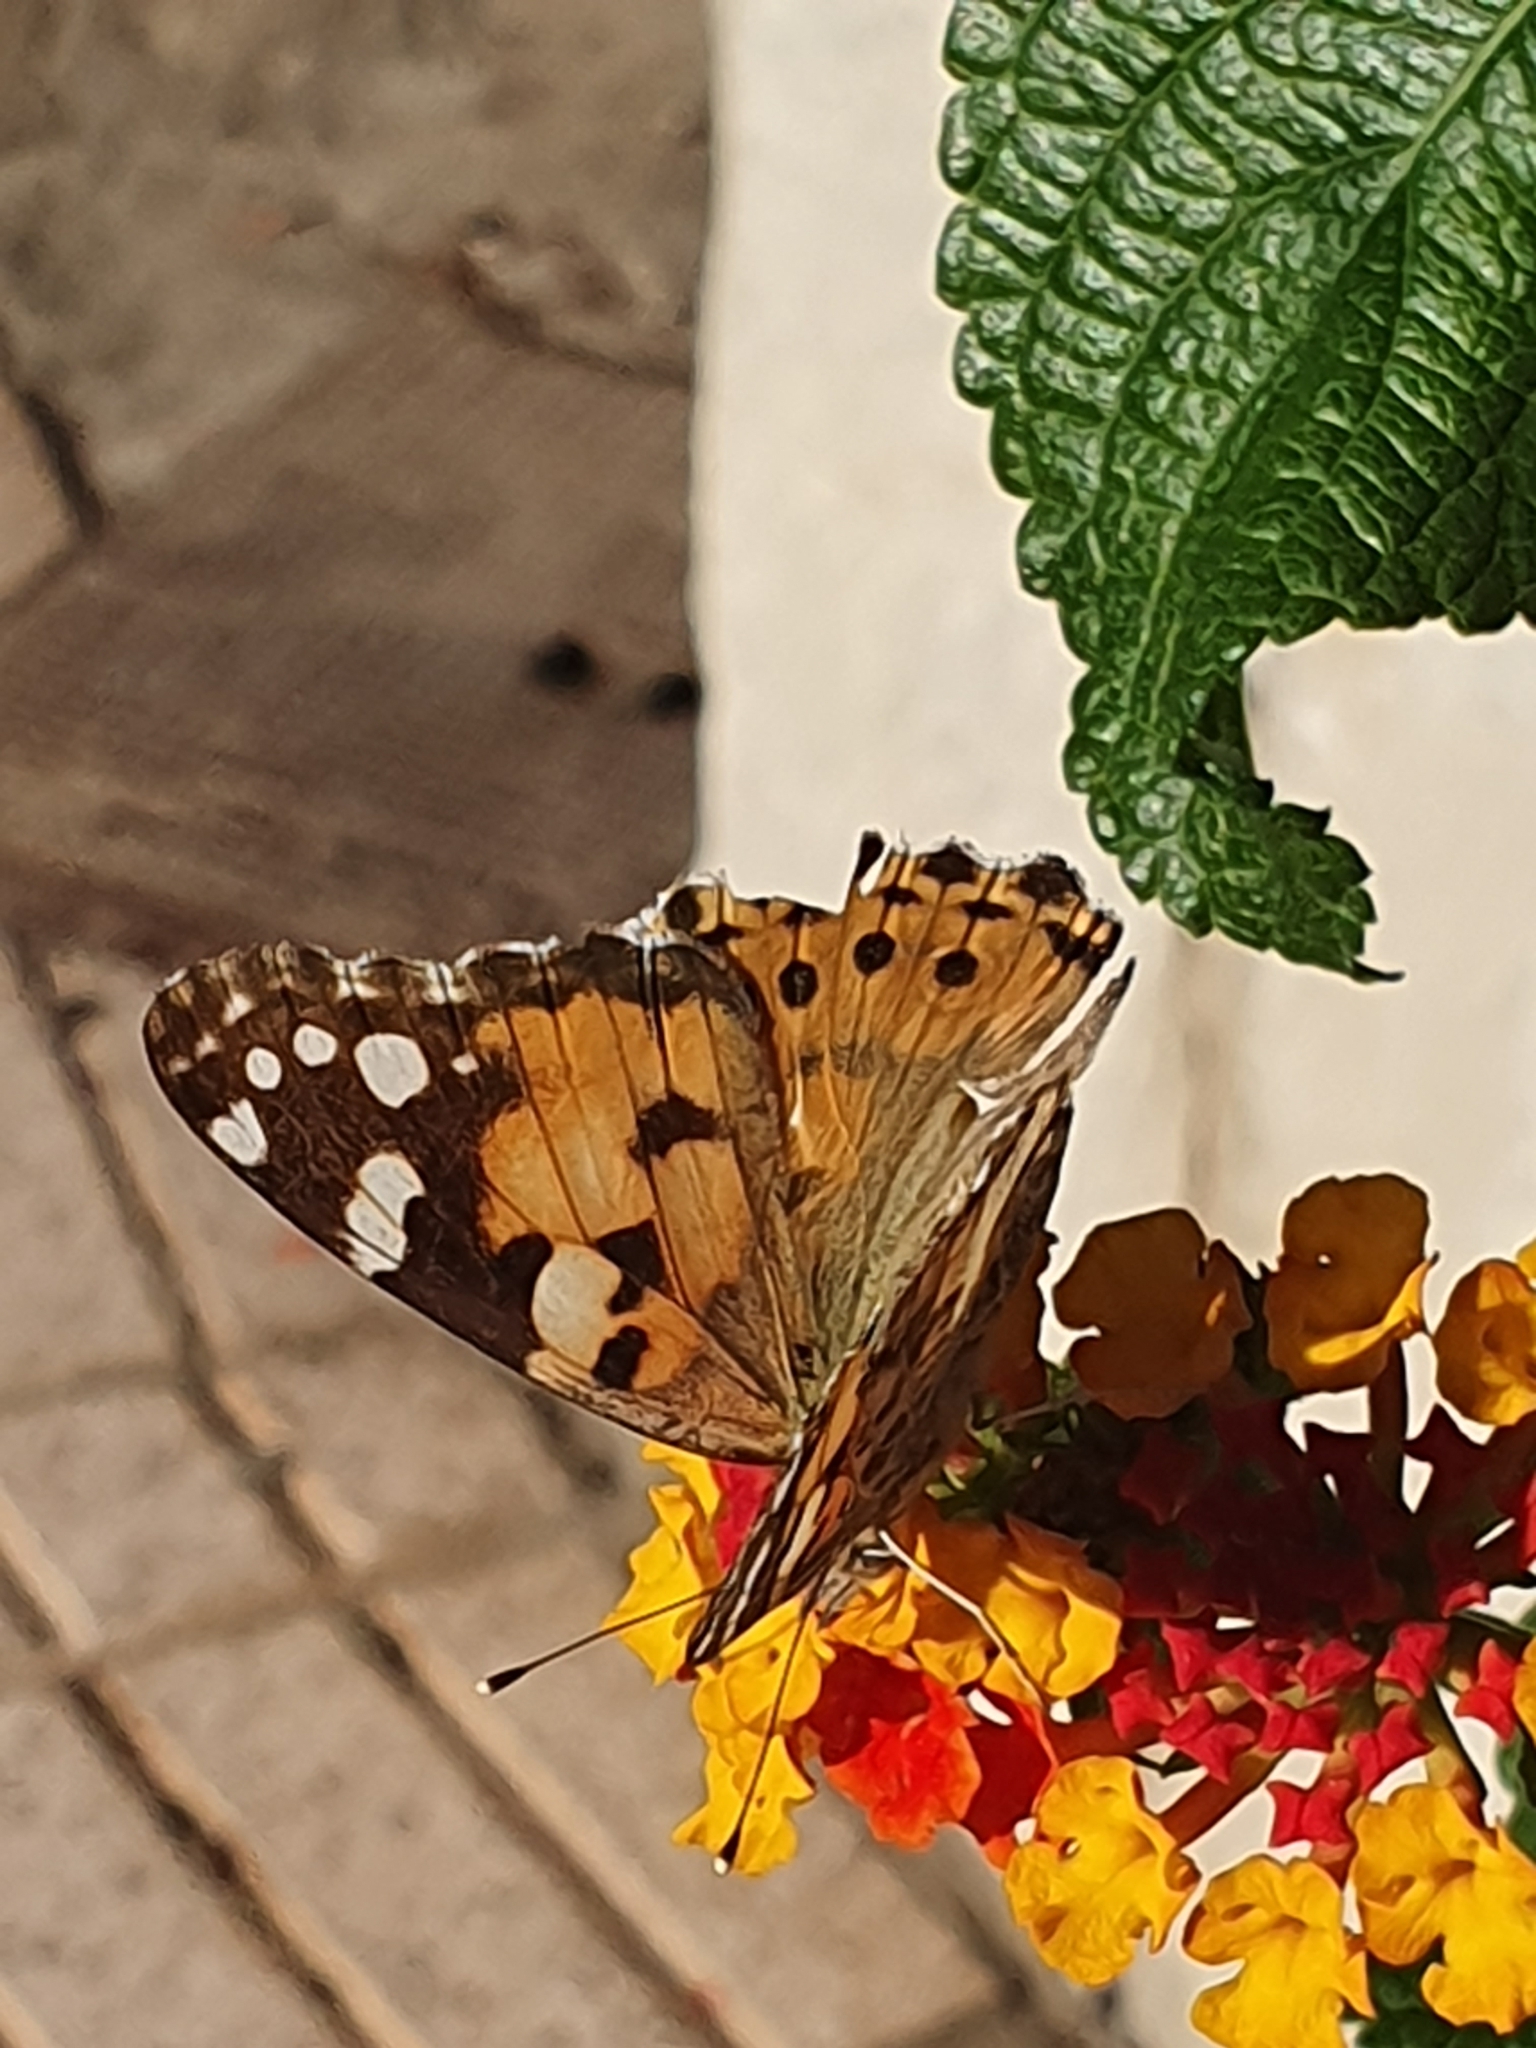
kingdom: Animalia
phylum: Arthropoda
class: Insecta
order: Lepidoptera
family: Nymphalidae
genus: Vanessa
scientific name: Vanessa cardui
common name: Painted lady
